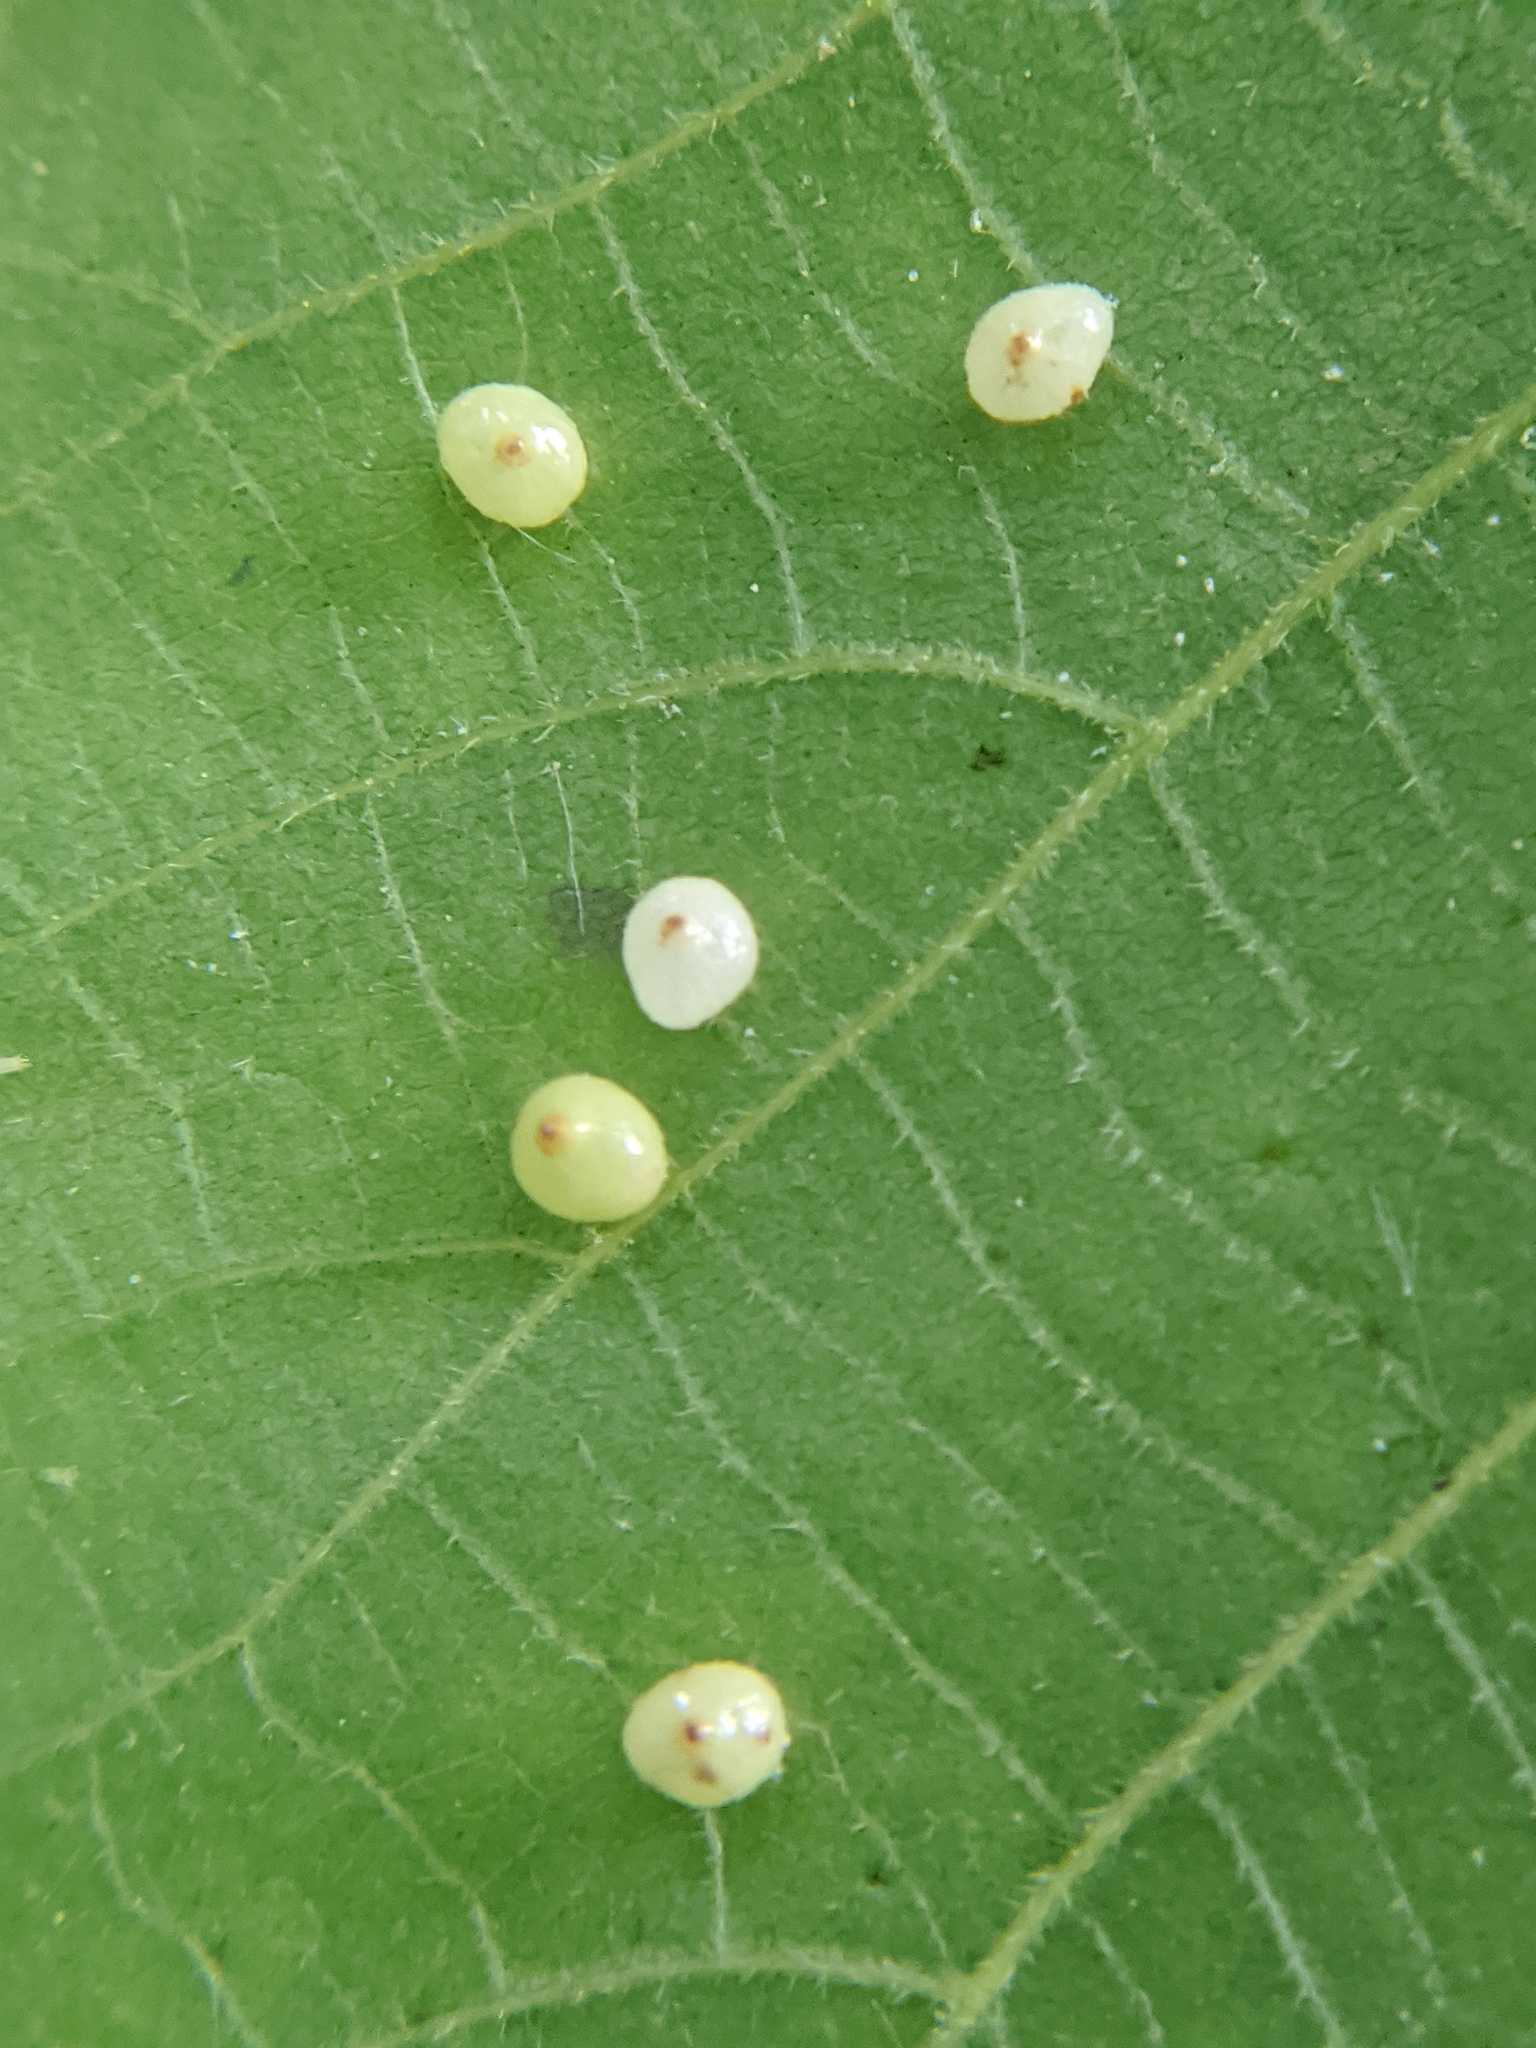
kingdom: Animalia
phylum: Arthropoda
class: Insecta
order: Diptera
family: Cecidomyiidae
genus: Caryomyia
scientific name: Caryomyia caryae
